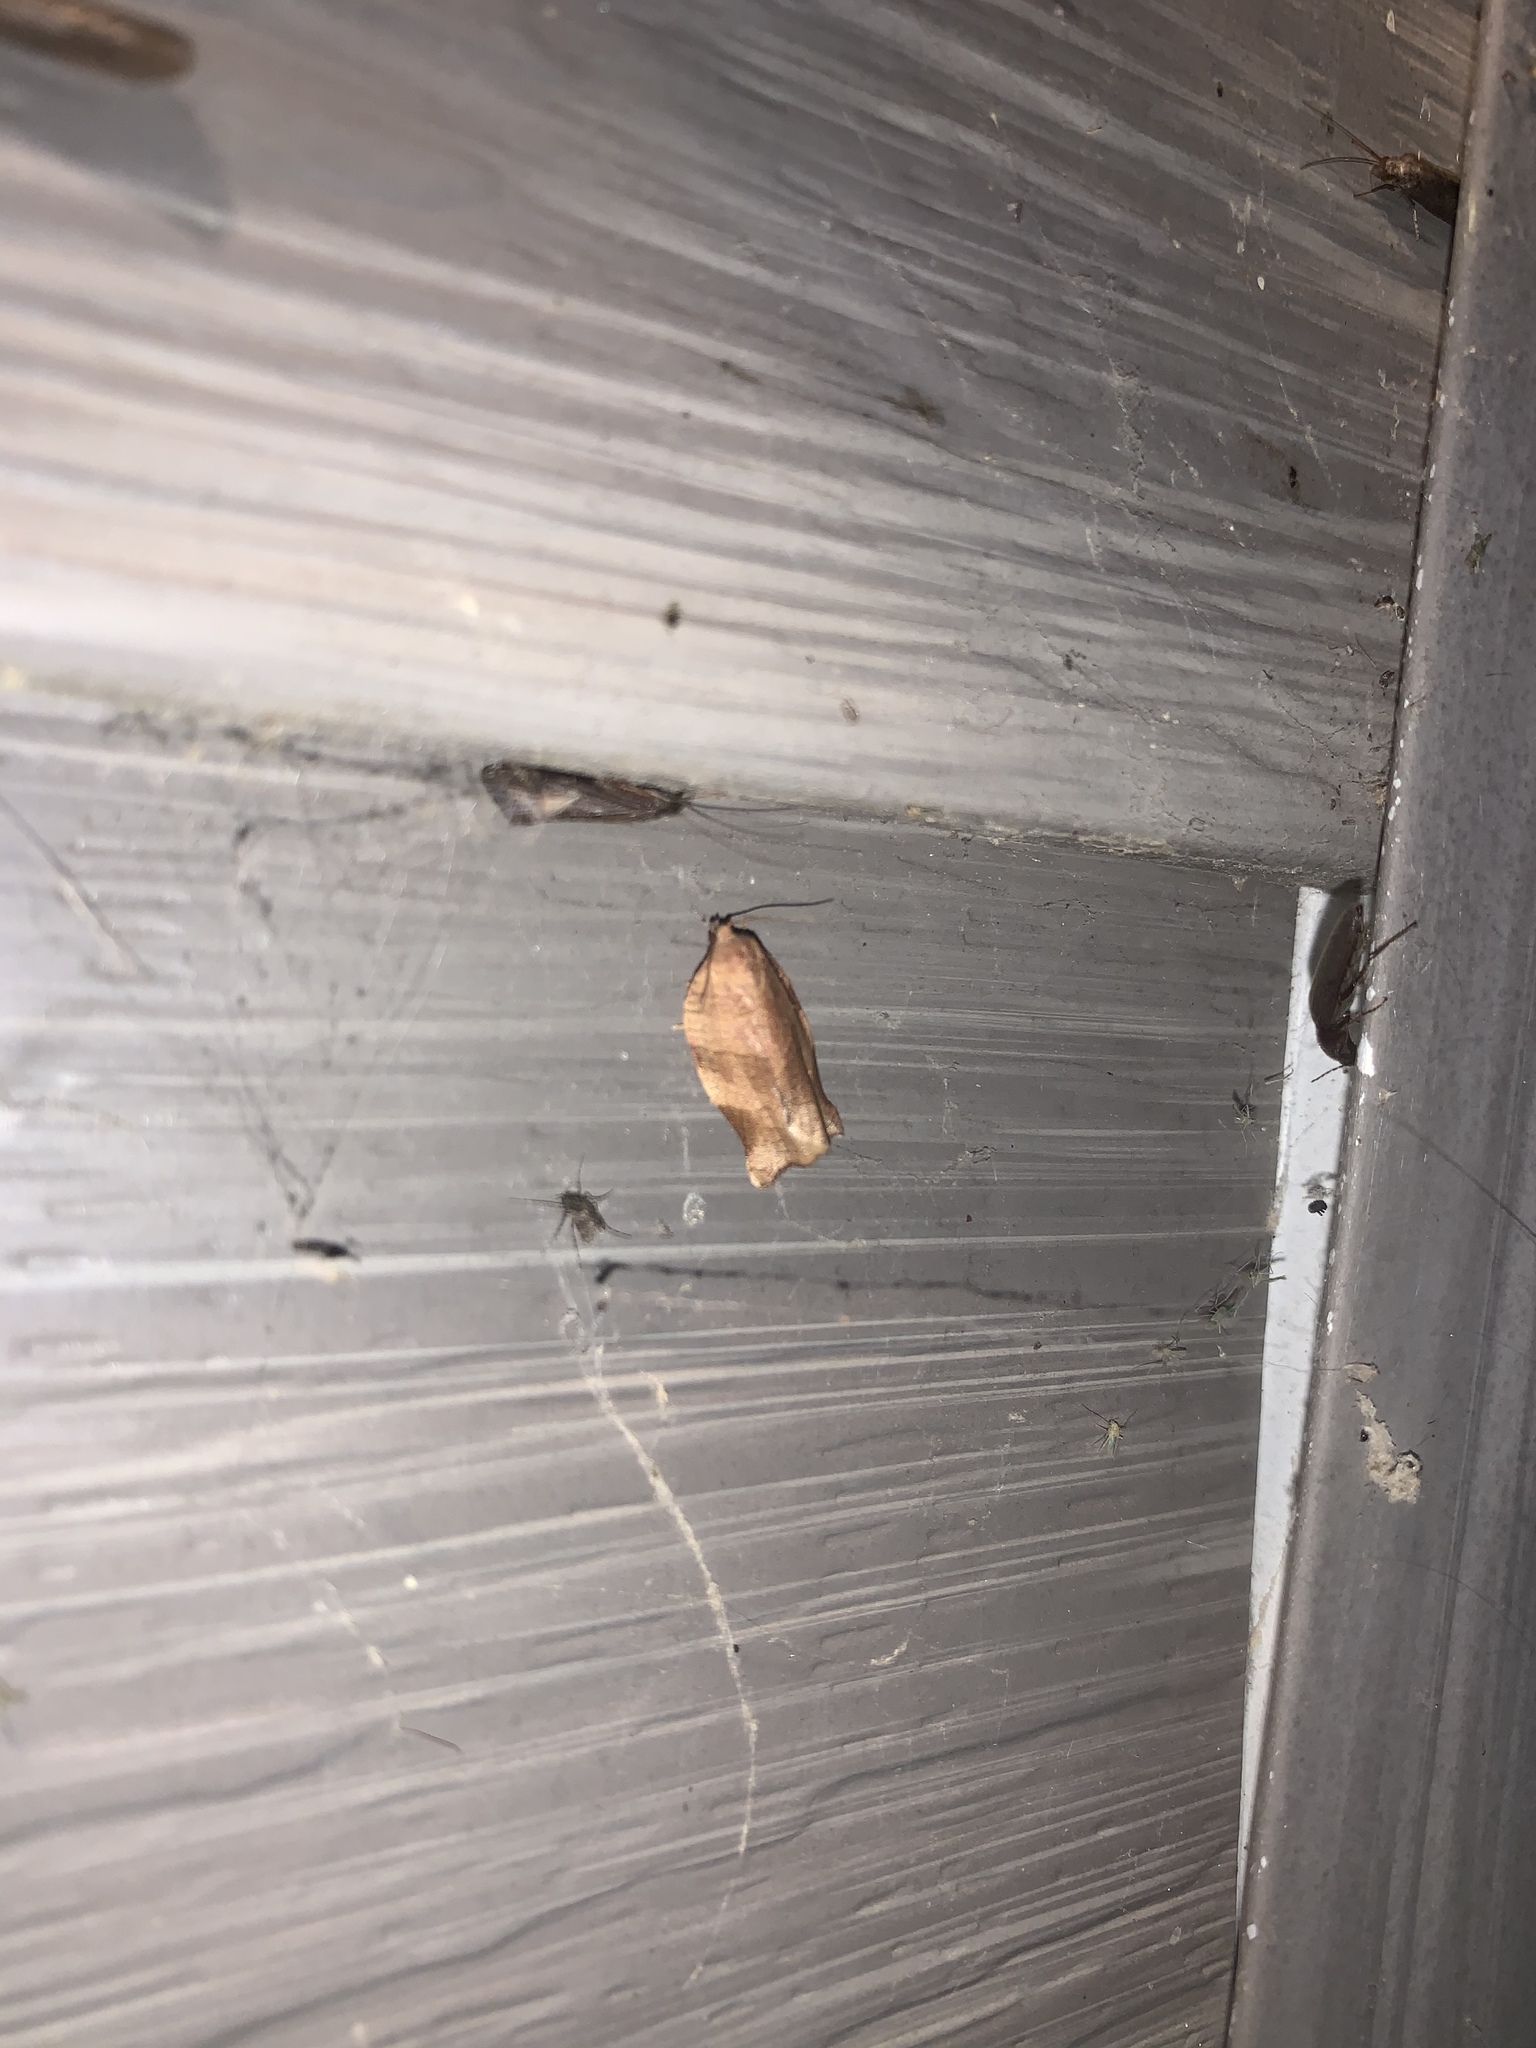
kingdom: Animalia
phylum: Arthropoda
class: Insecta
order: Lepidoptera
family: Tortricidae
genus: Choristoneura
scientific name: Choristoneura rosaceana
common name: Oblique-banded leafroller moth
